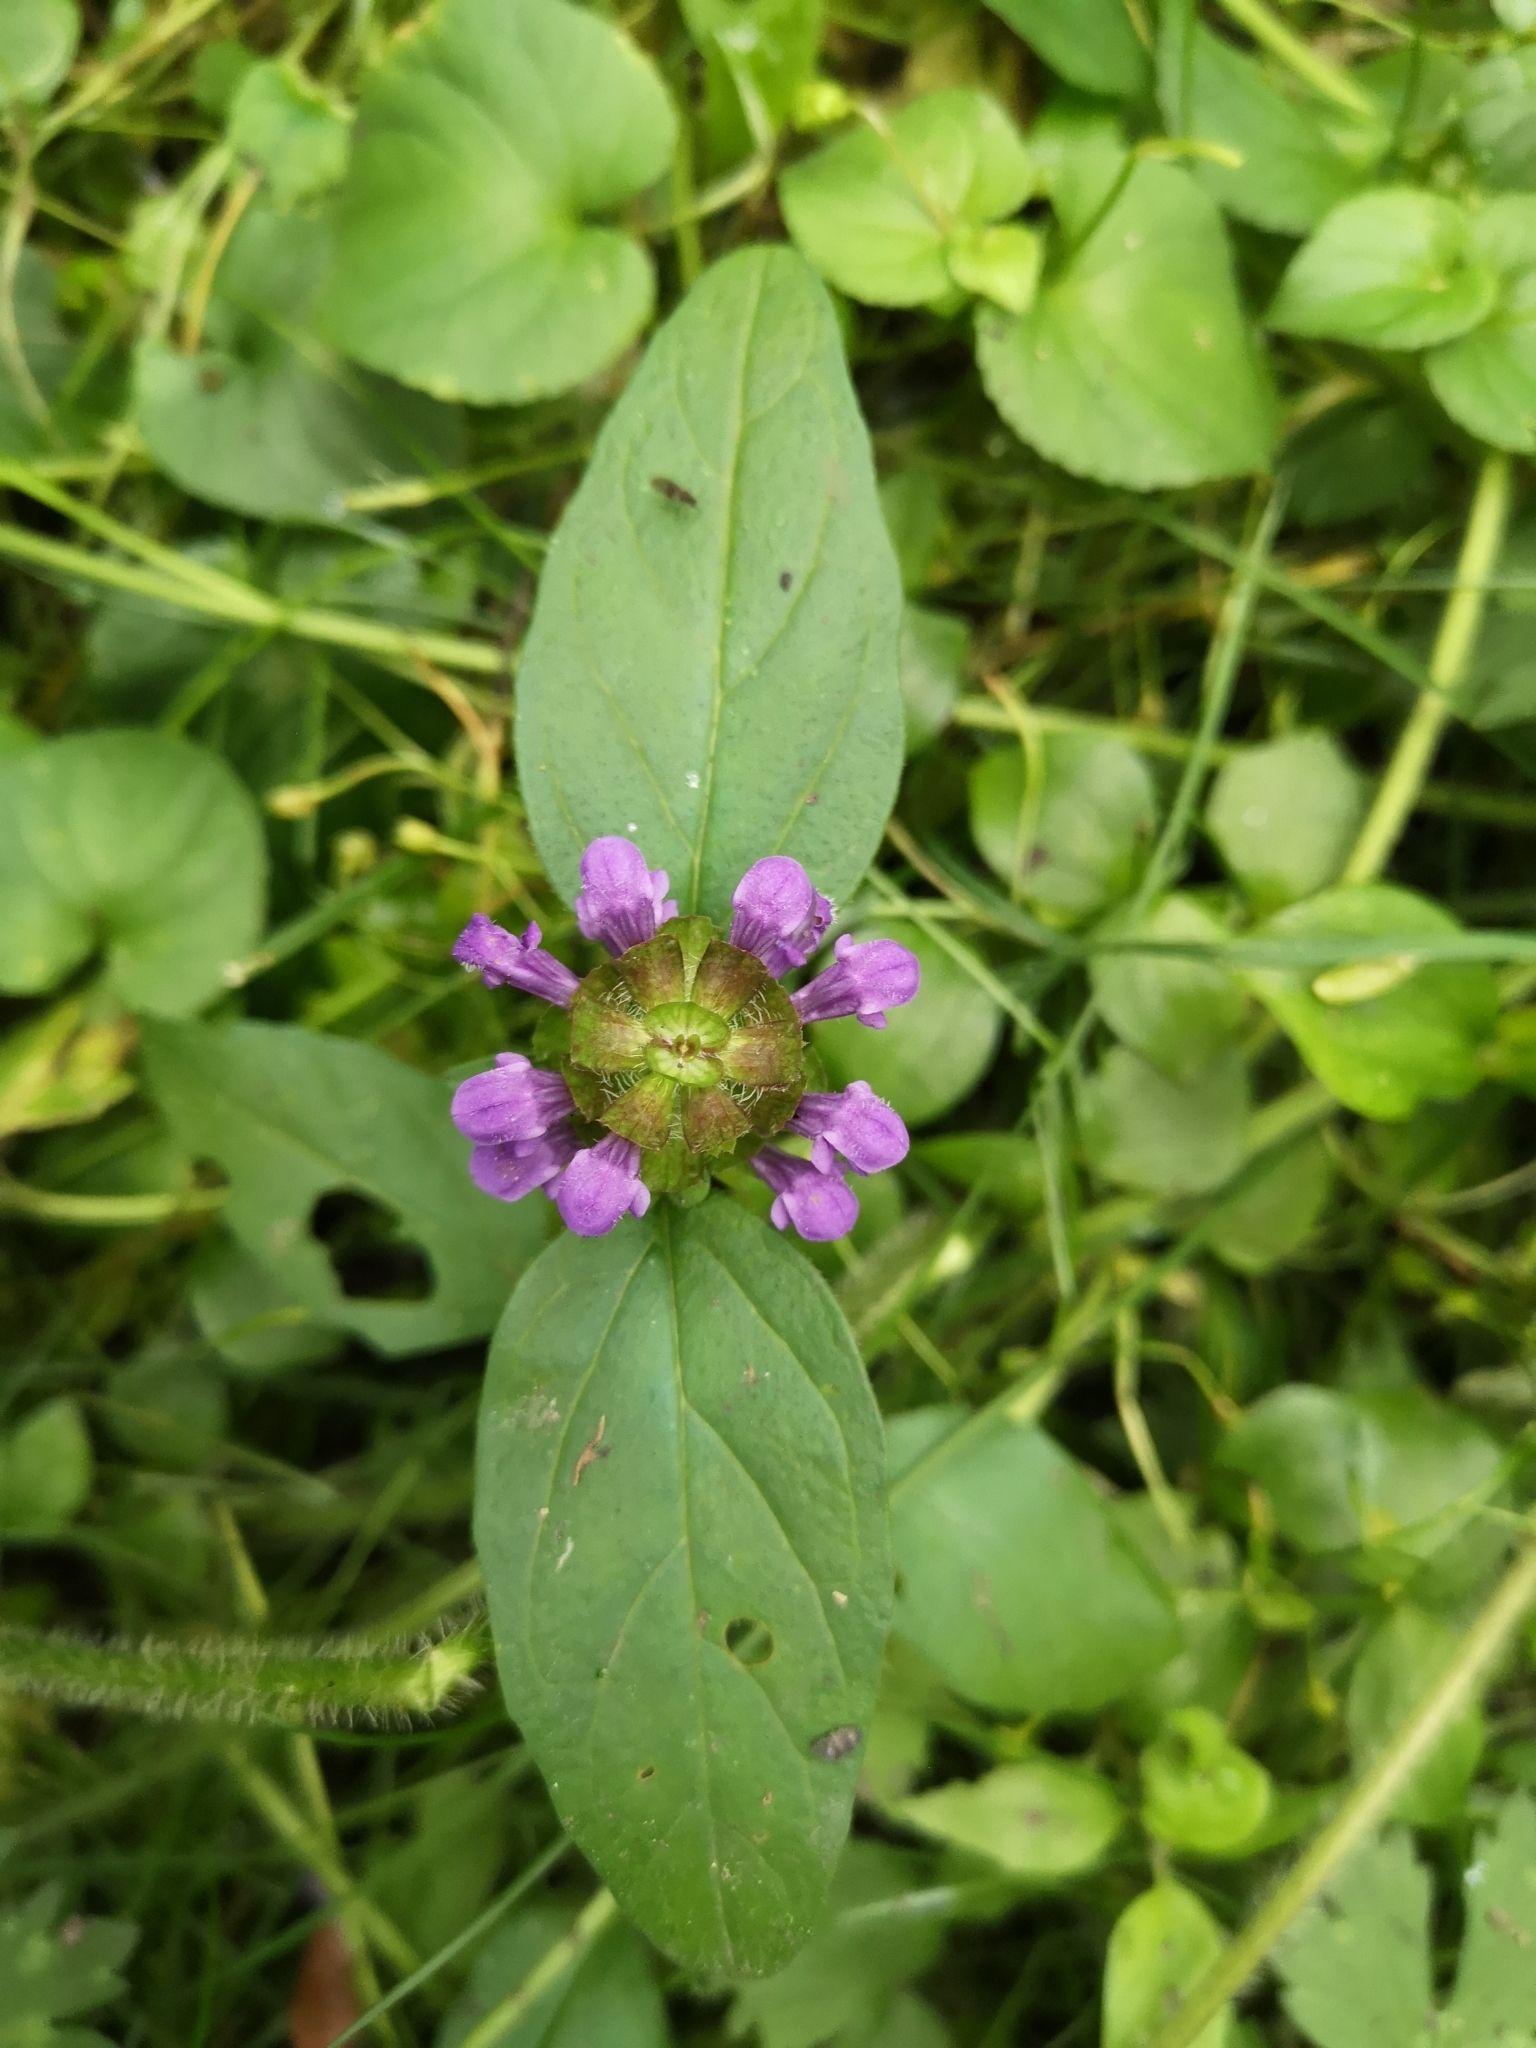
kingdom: Plantae
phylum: Tracheophyta
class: Magnoliopsida
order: Lamiales
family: Lamiaceae
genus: Prunella
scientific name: Prunella vulgaris
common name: Heal-all
